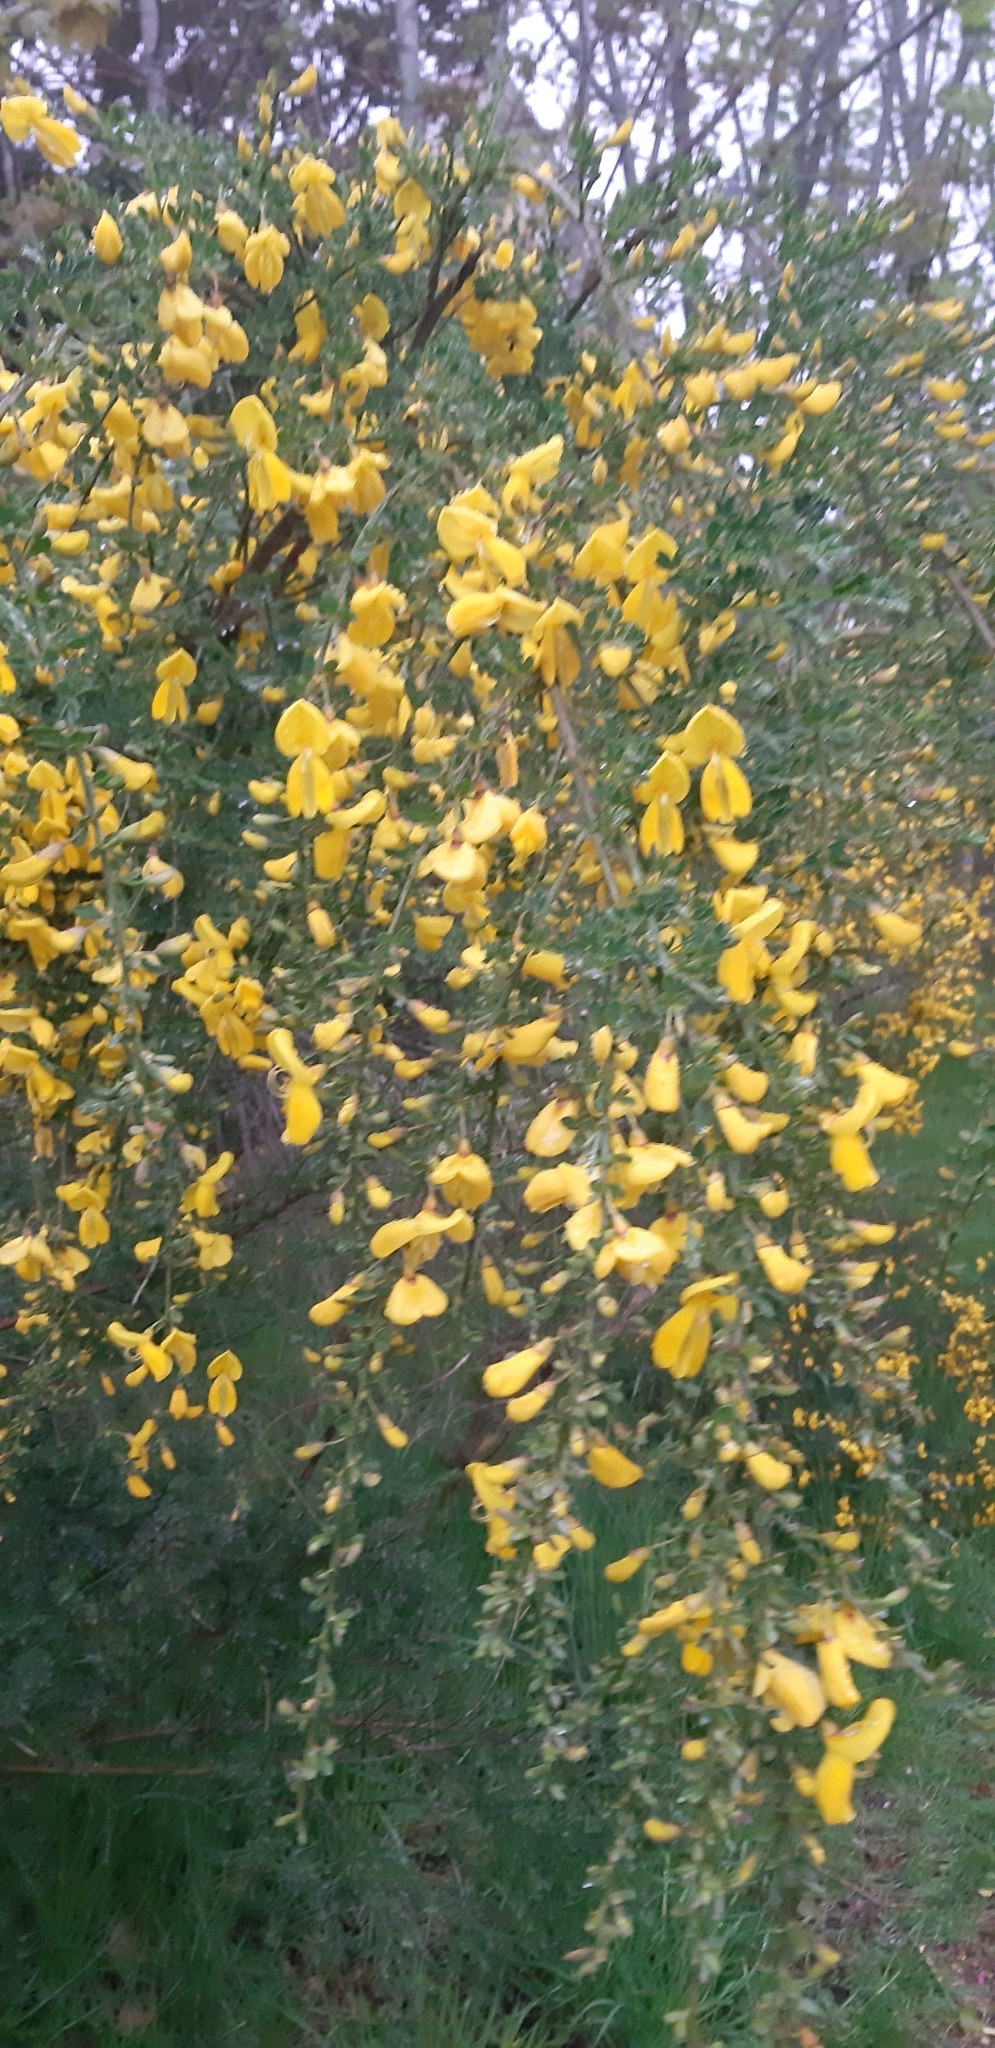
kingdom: Plantae
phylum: Tracheophyta
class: Magnoliopsida
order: Fabales
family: Fabaceae
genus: Cytisus
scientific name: Cytisus scoparius
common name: Scotch broom
